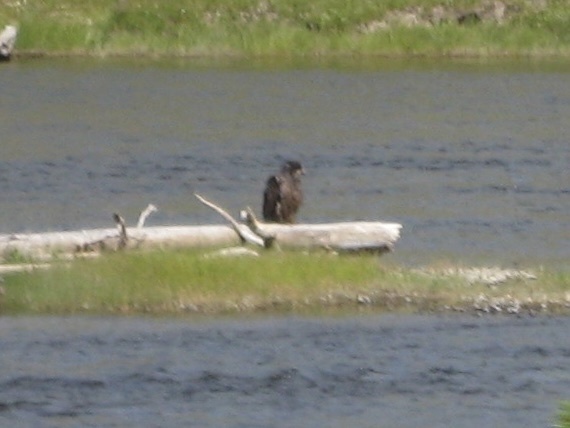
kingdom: Animalia
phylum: Chordata
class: Aves
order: Accipitriformes
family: Accipitridae
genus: Haliaeetus
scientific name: Haliaeetus leucocephalus
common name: Bald eagle
